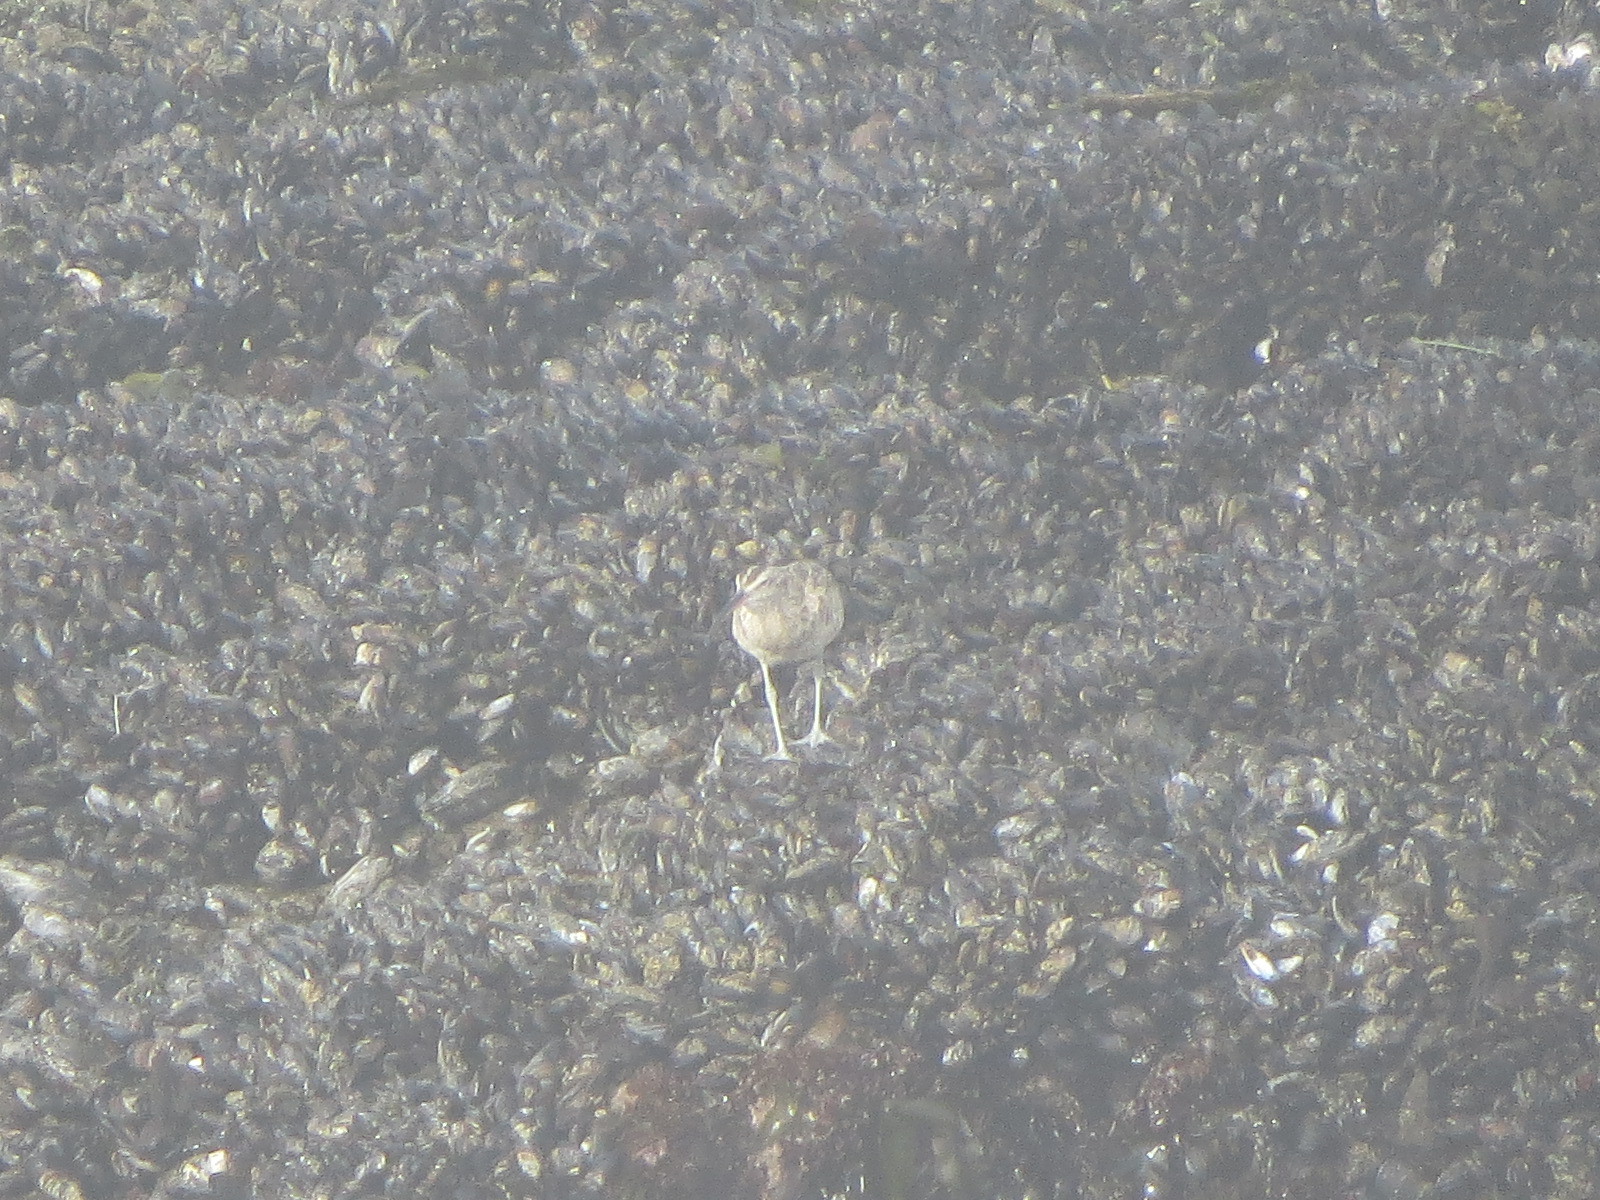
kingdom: Animalia
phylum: Chordata
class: Aves
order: Charadriiformes
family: Scolopacidae
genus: Numenius
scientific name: Numenius phaeopus
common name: Whimbrel
